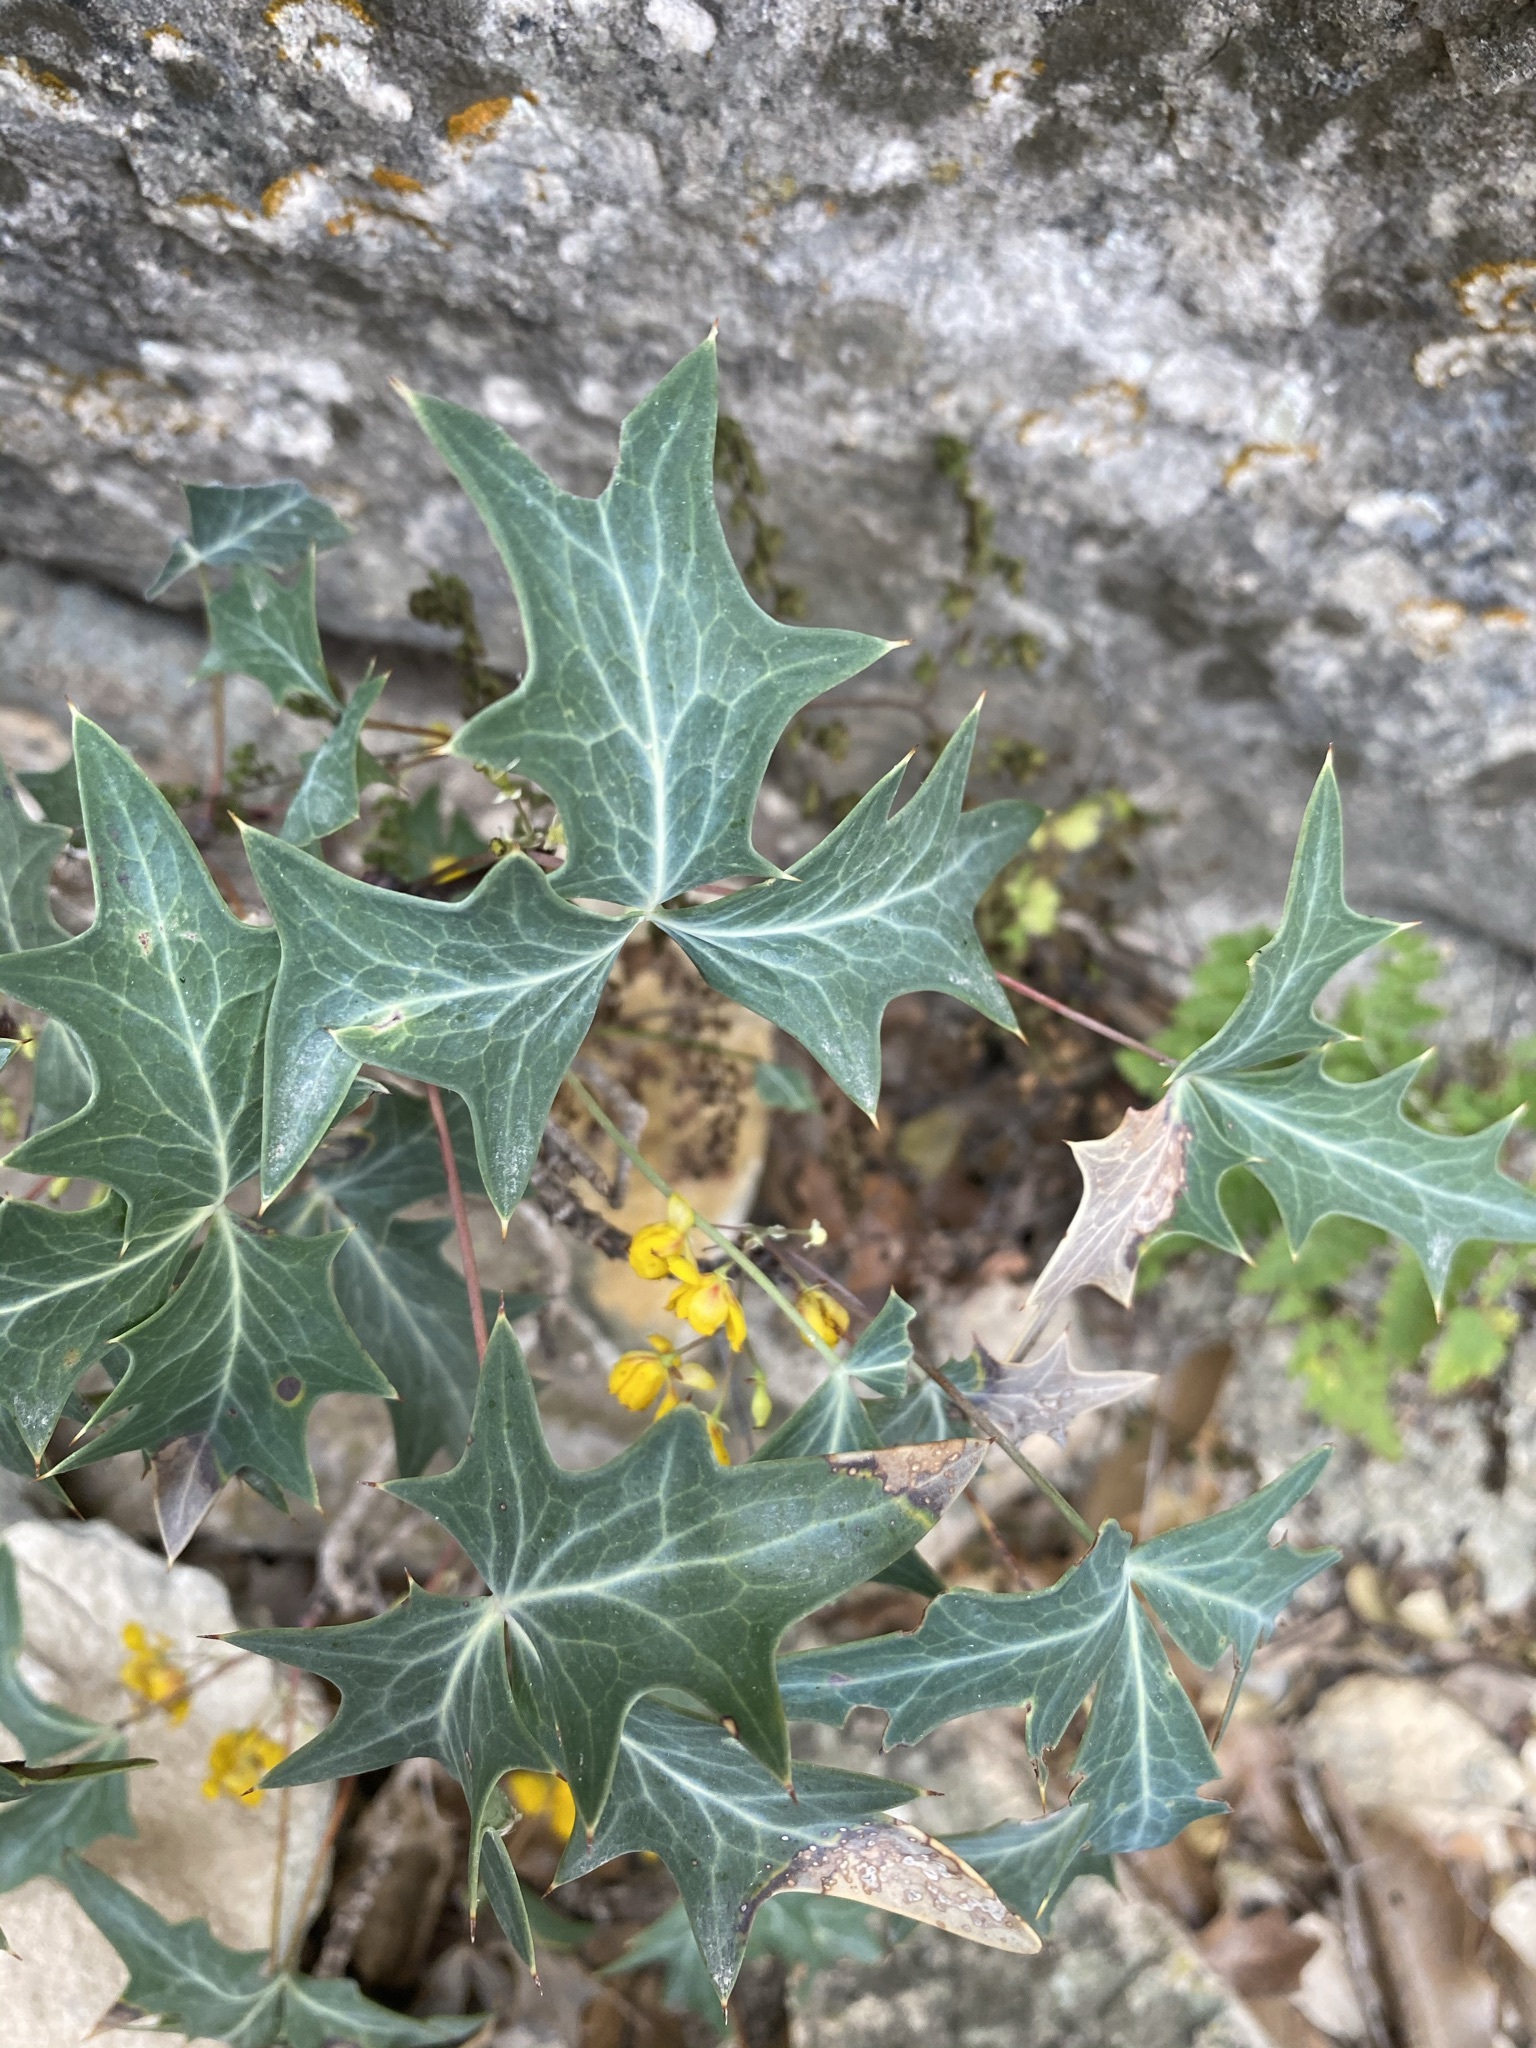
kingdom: Plantae
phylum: Tracheophyta
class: Magnoliopsida
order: Ranunculales
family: Berberidaceae
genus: Alloberberis
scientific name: Alloberberis trifoliolata
